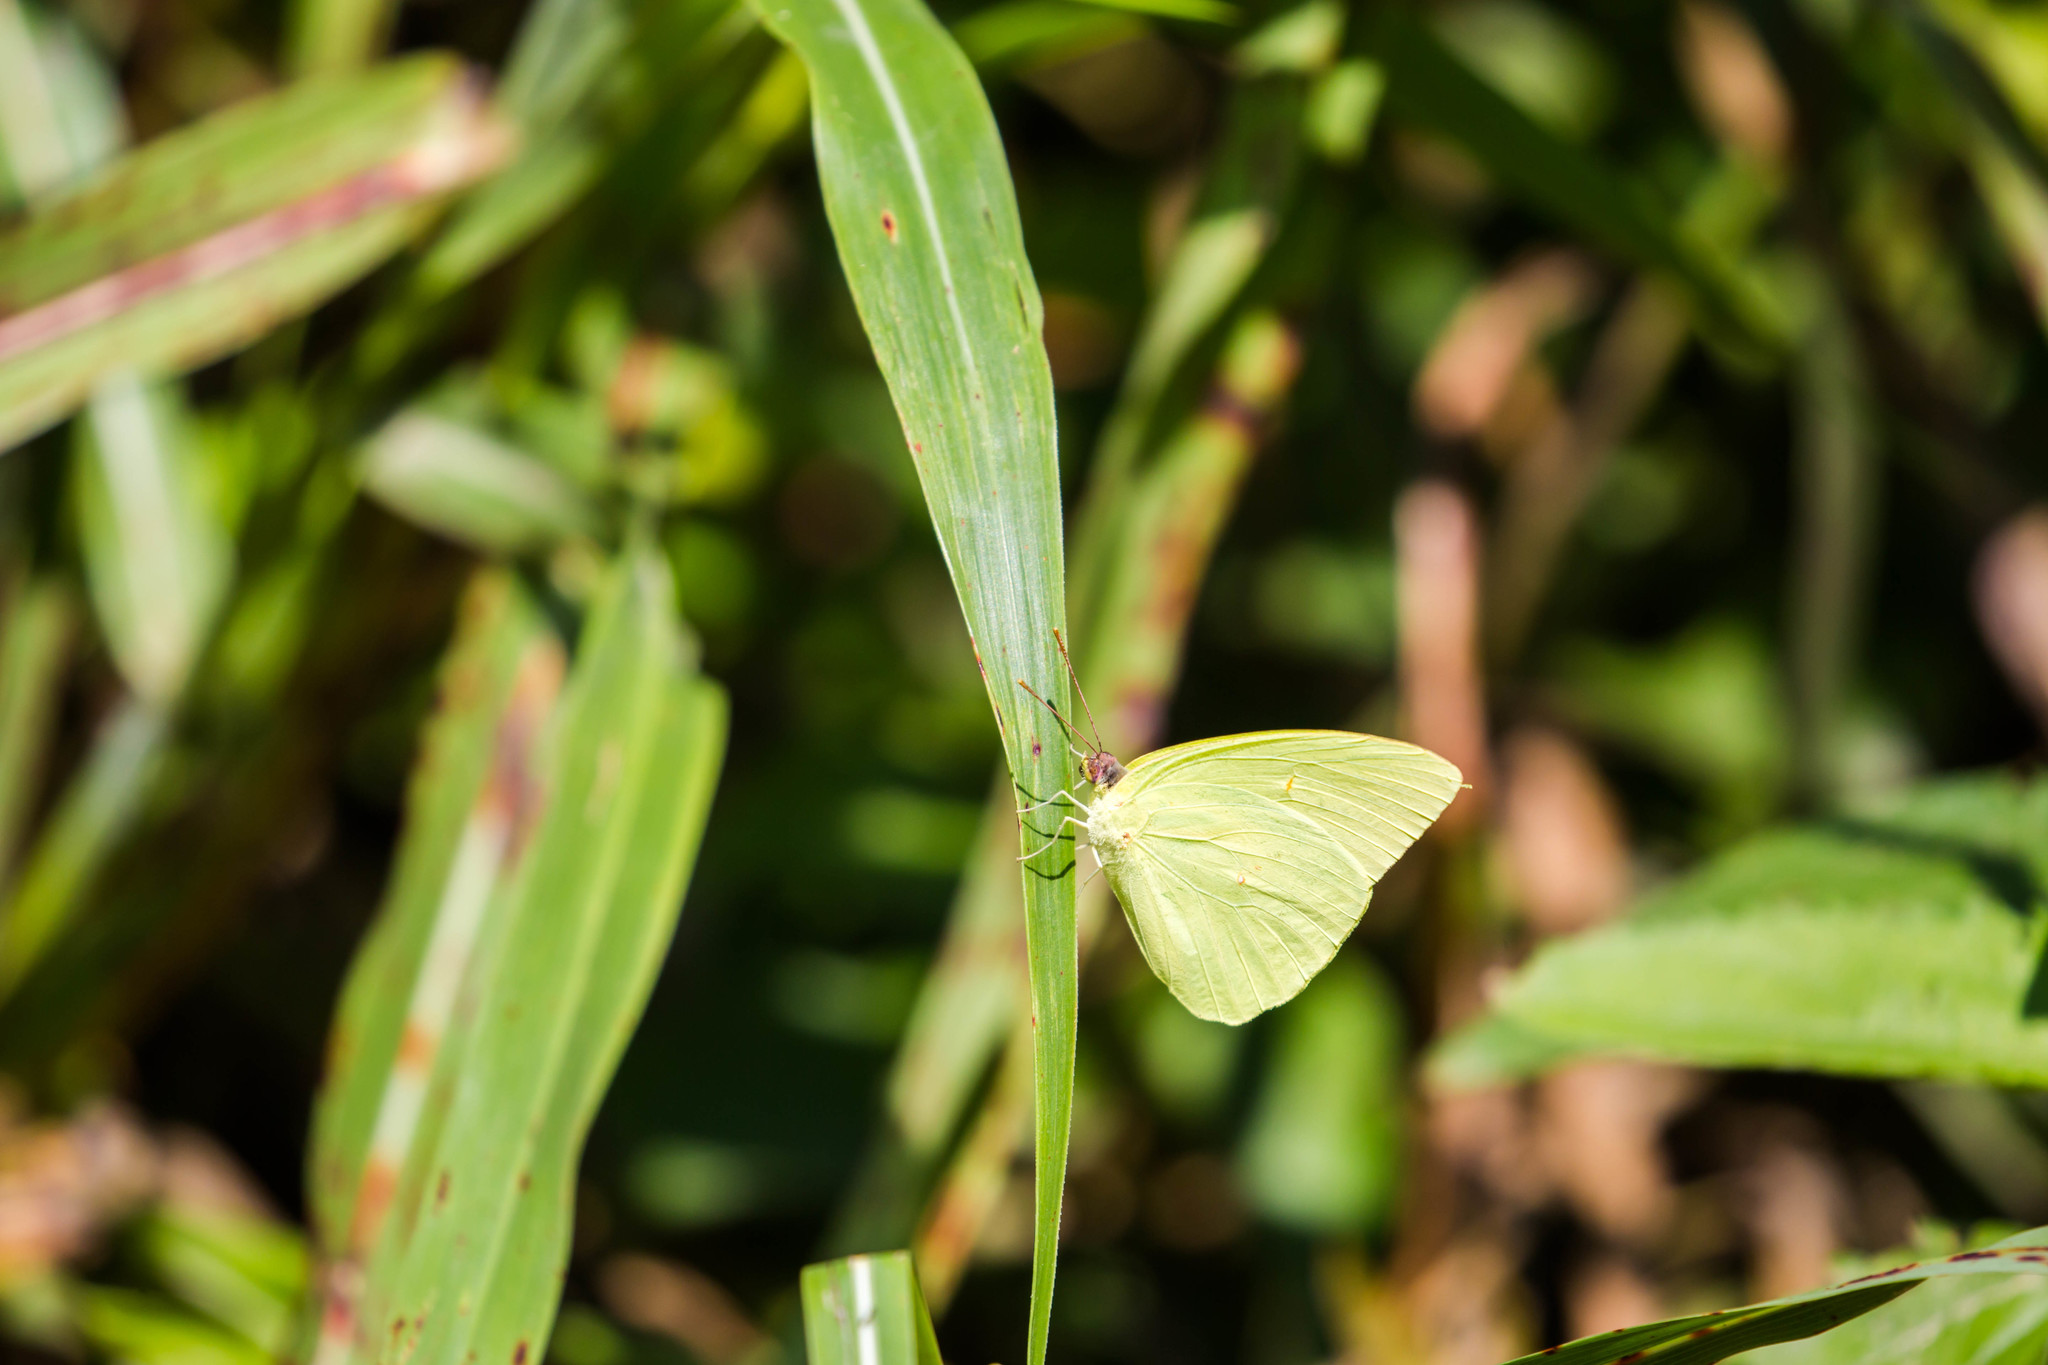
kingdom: Animalia
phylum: Arthropoda
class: Insecta
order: Lepidoptera
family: Pieridae
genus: Phoebis
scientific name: Phoebis sennae
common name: Cloudless sulphur
